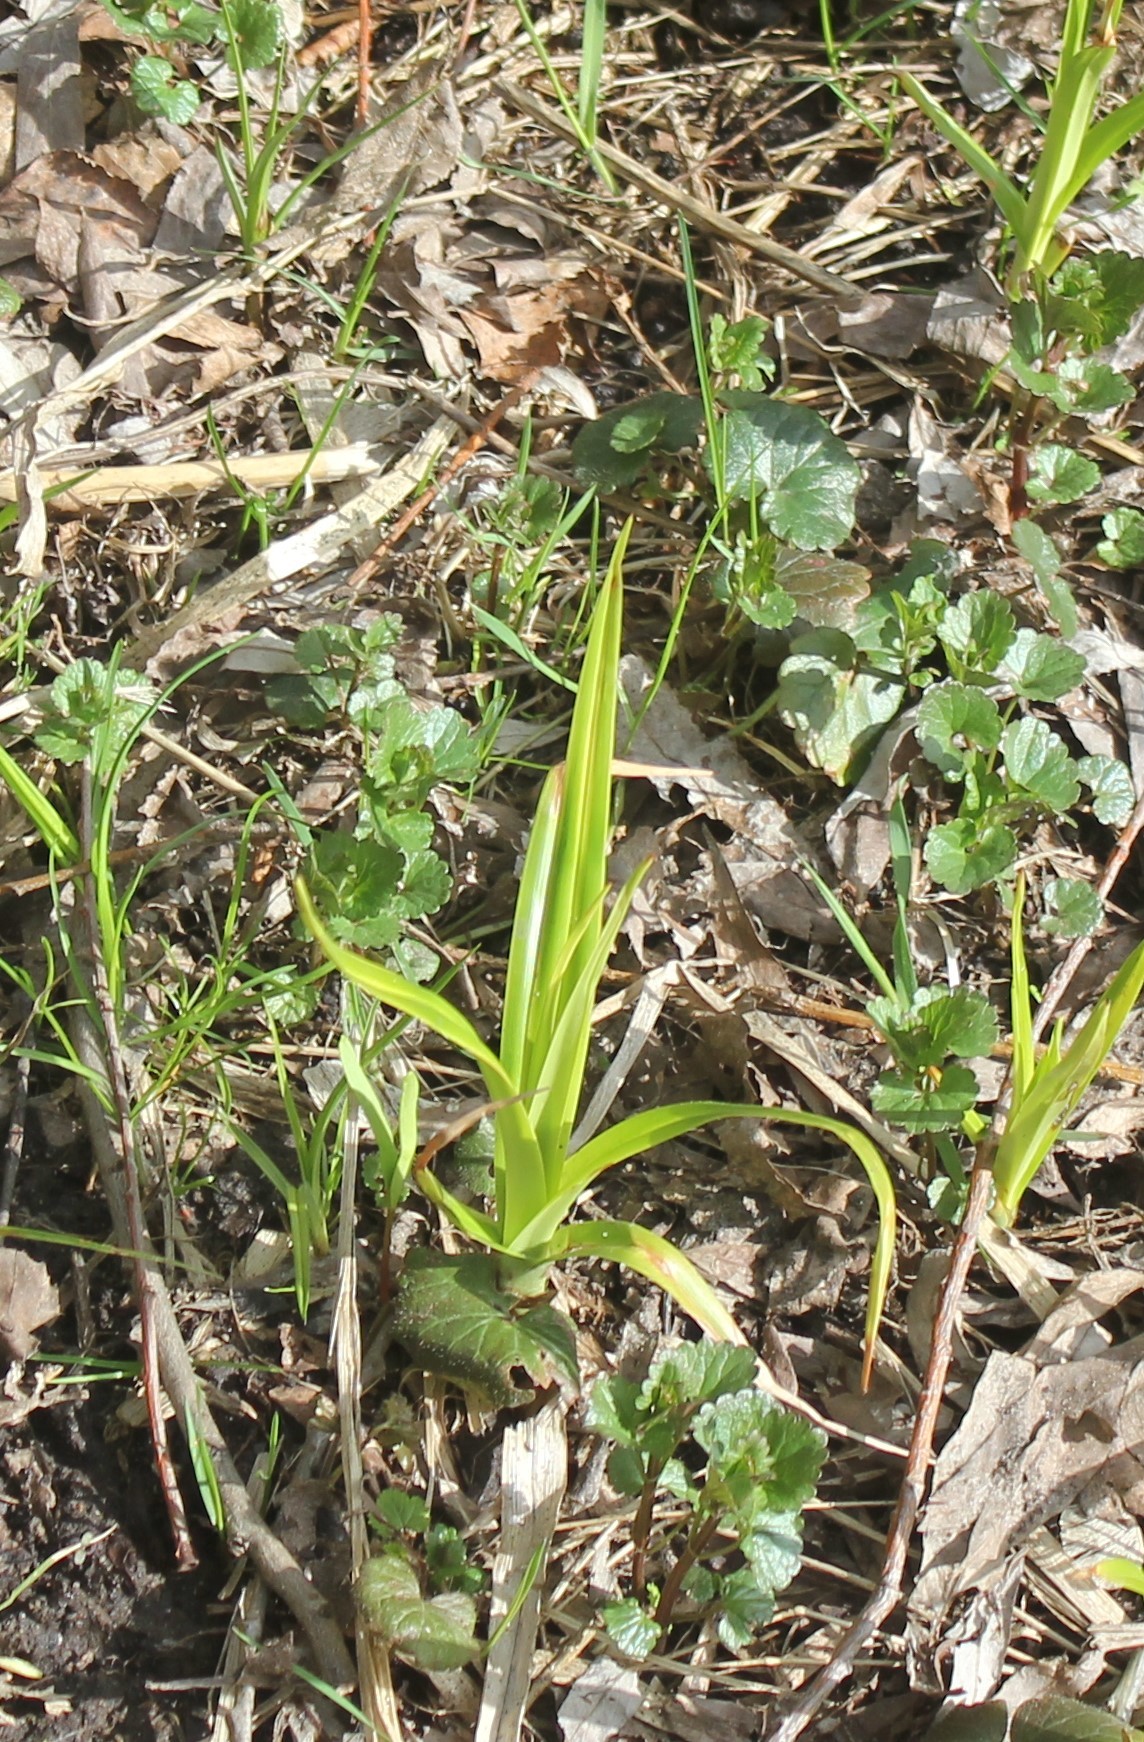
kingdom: Plantae
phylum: Tracheophyta
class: Liliopsida
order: Poales
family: Cyperaceae
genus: Scirpus
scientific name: Scirpus sylvaticus
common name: Wood club-rush
